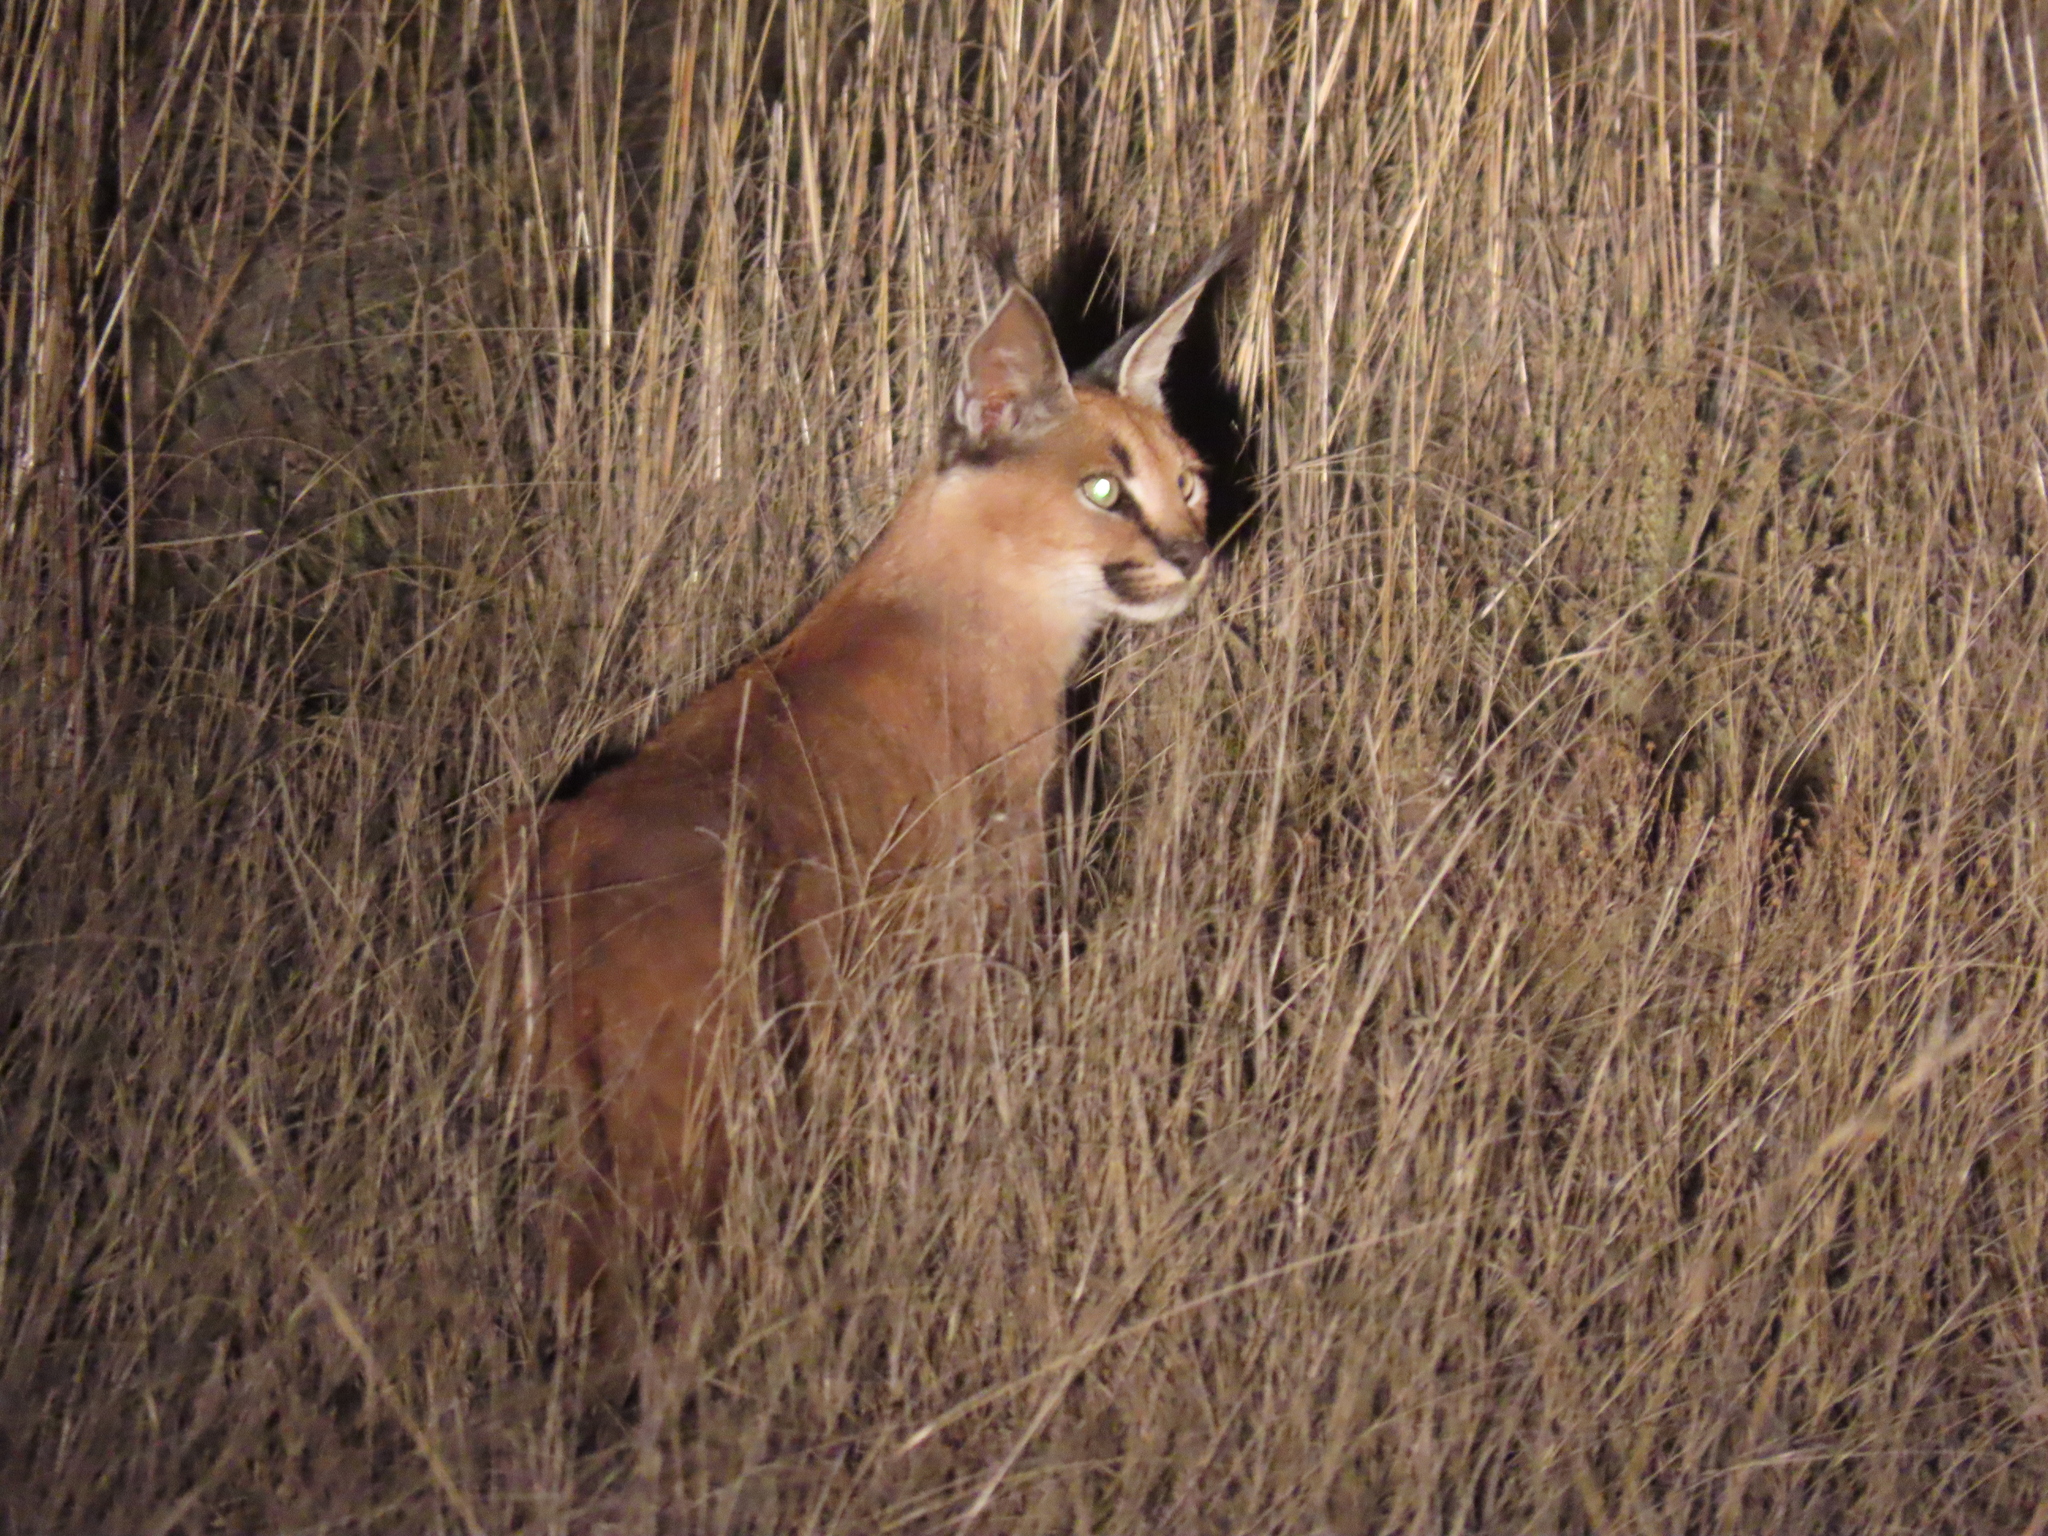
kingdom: Animalia
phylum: Chordata
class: Mammalia
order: Carnivora
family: Felidae
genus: Caracal
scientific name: Caracal caracal
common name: Caracal
